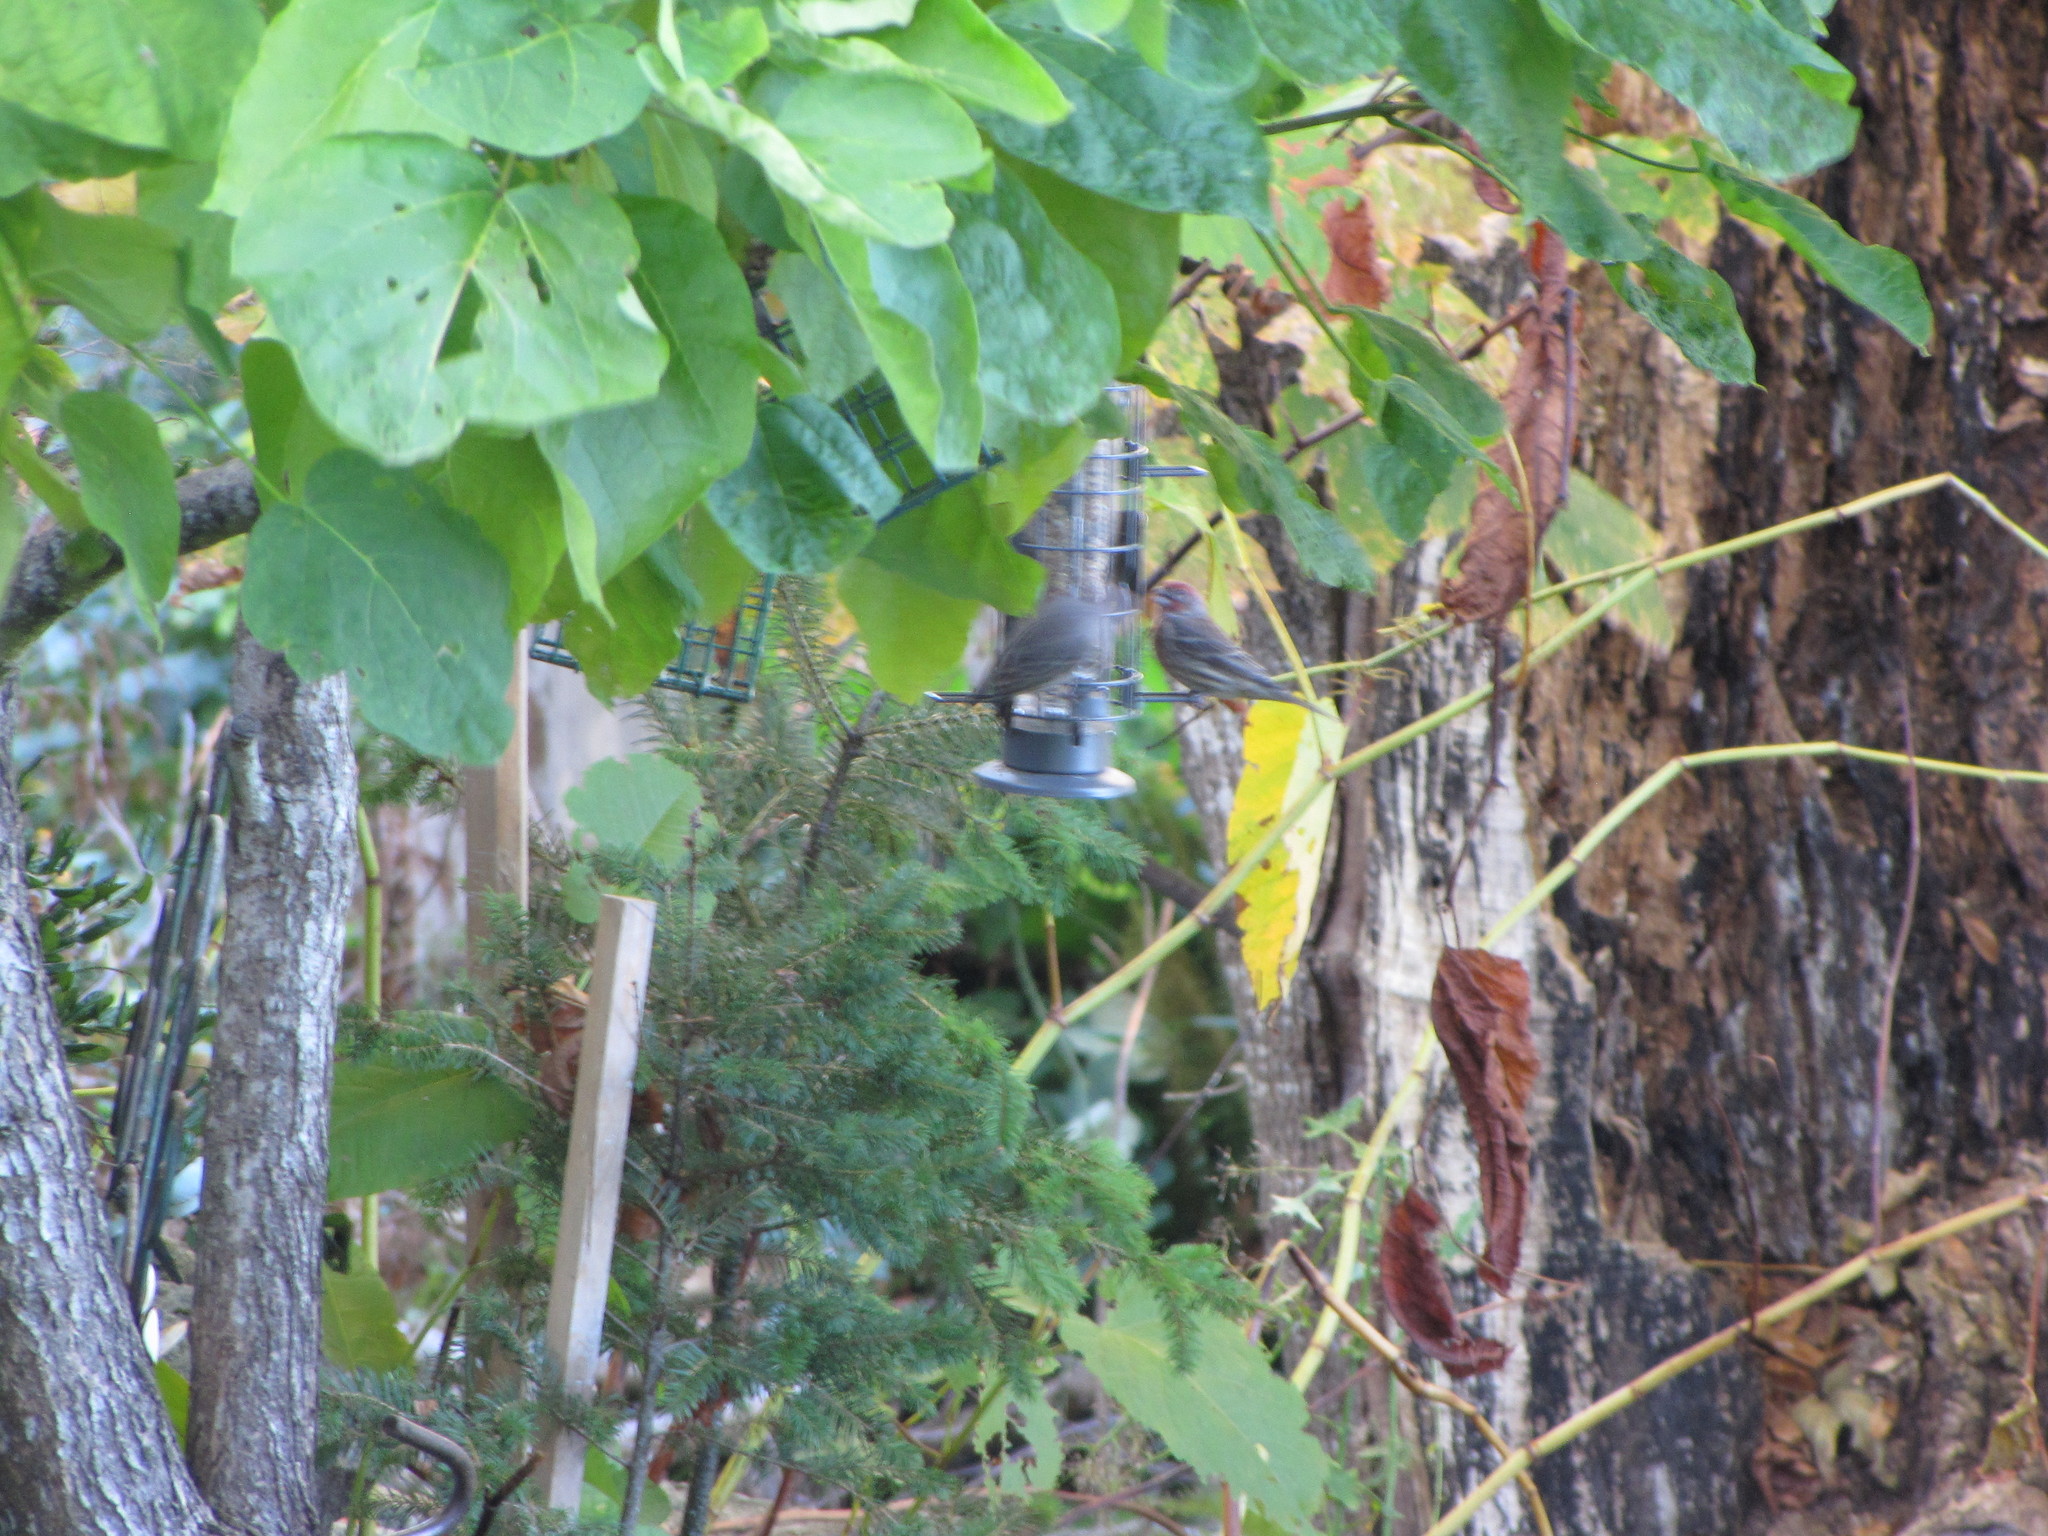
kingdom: Animalia
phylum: Chordata
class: Aves
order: Passeriformes
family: Fringillidae
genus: Haemorhous
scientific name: Haemorhous mexicanus
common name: House finch
